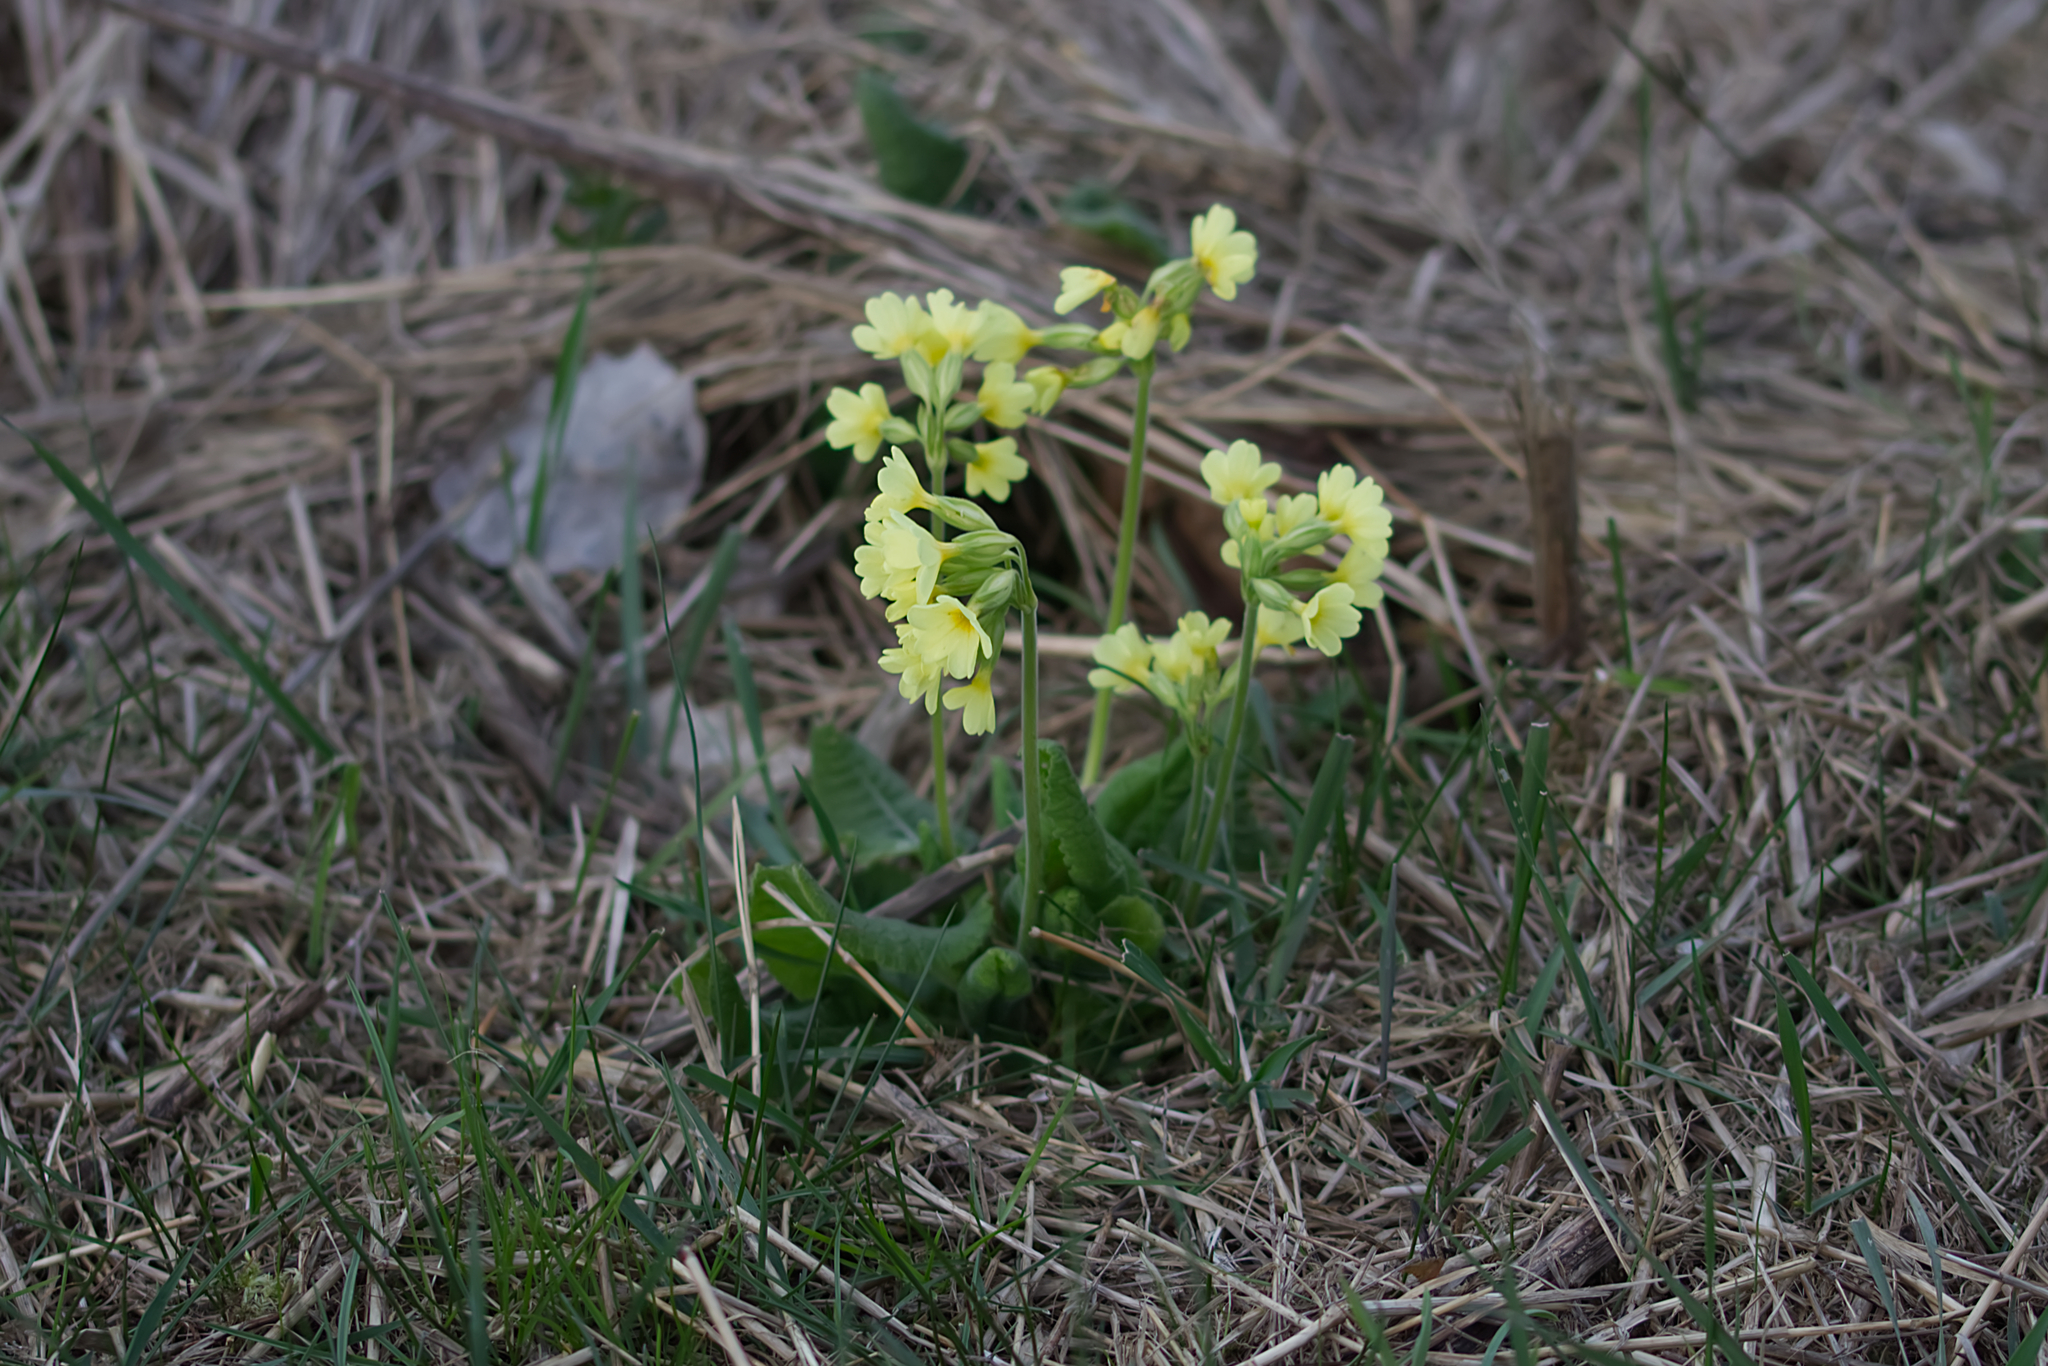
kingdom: Plantae
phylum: Tracheophyta
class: Magnoliopsida
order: Ericales
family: Primulaceae
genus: Primula
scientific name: Primula elatior
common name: Oxlip
